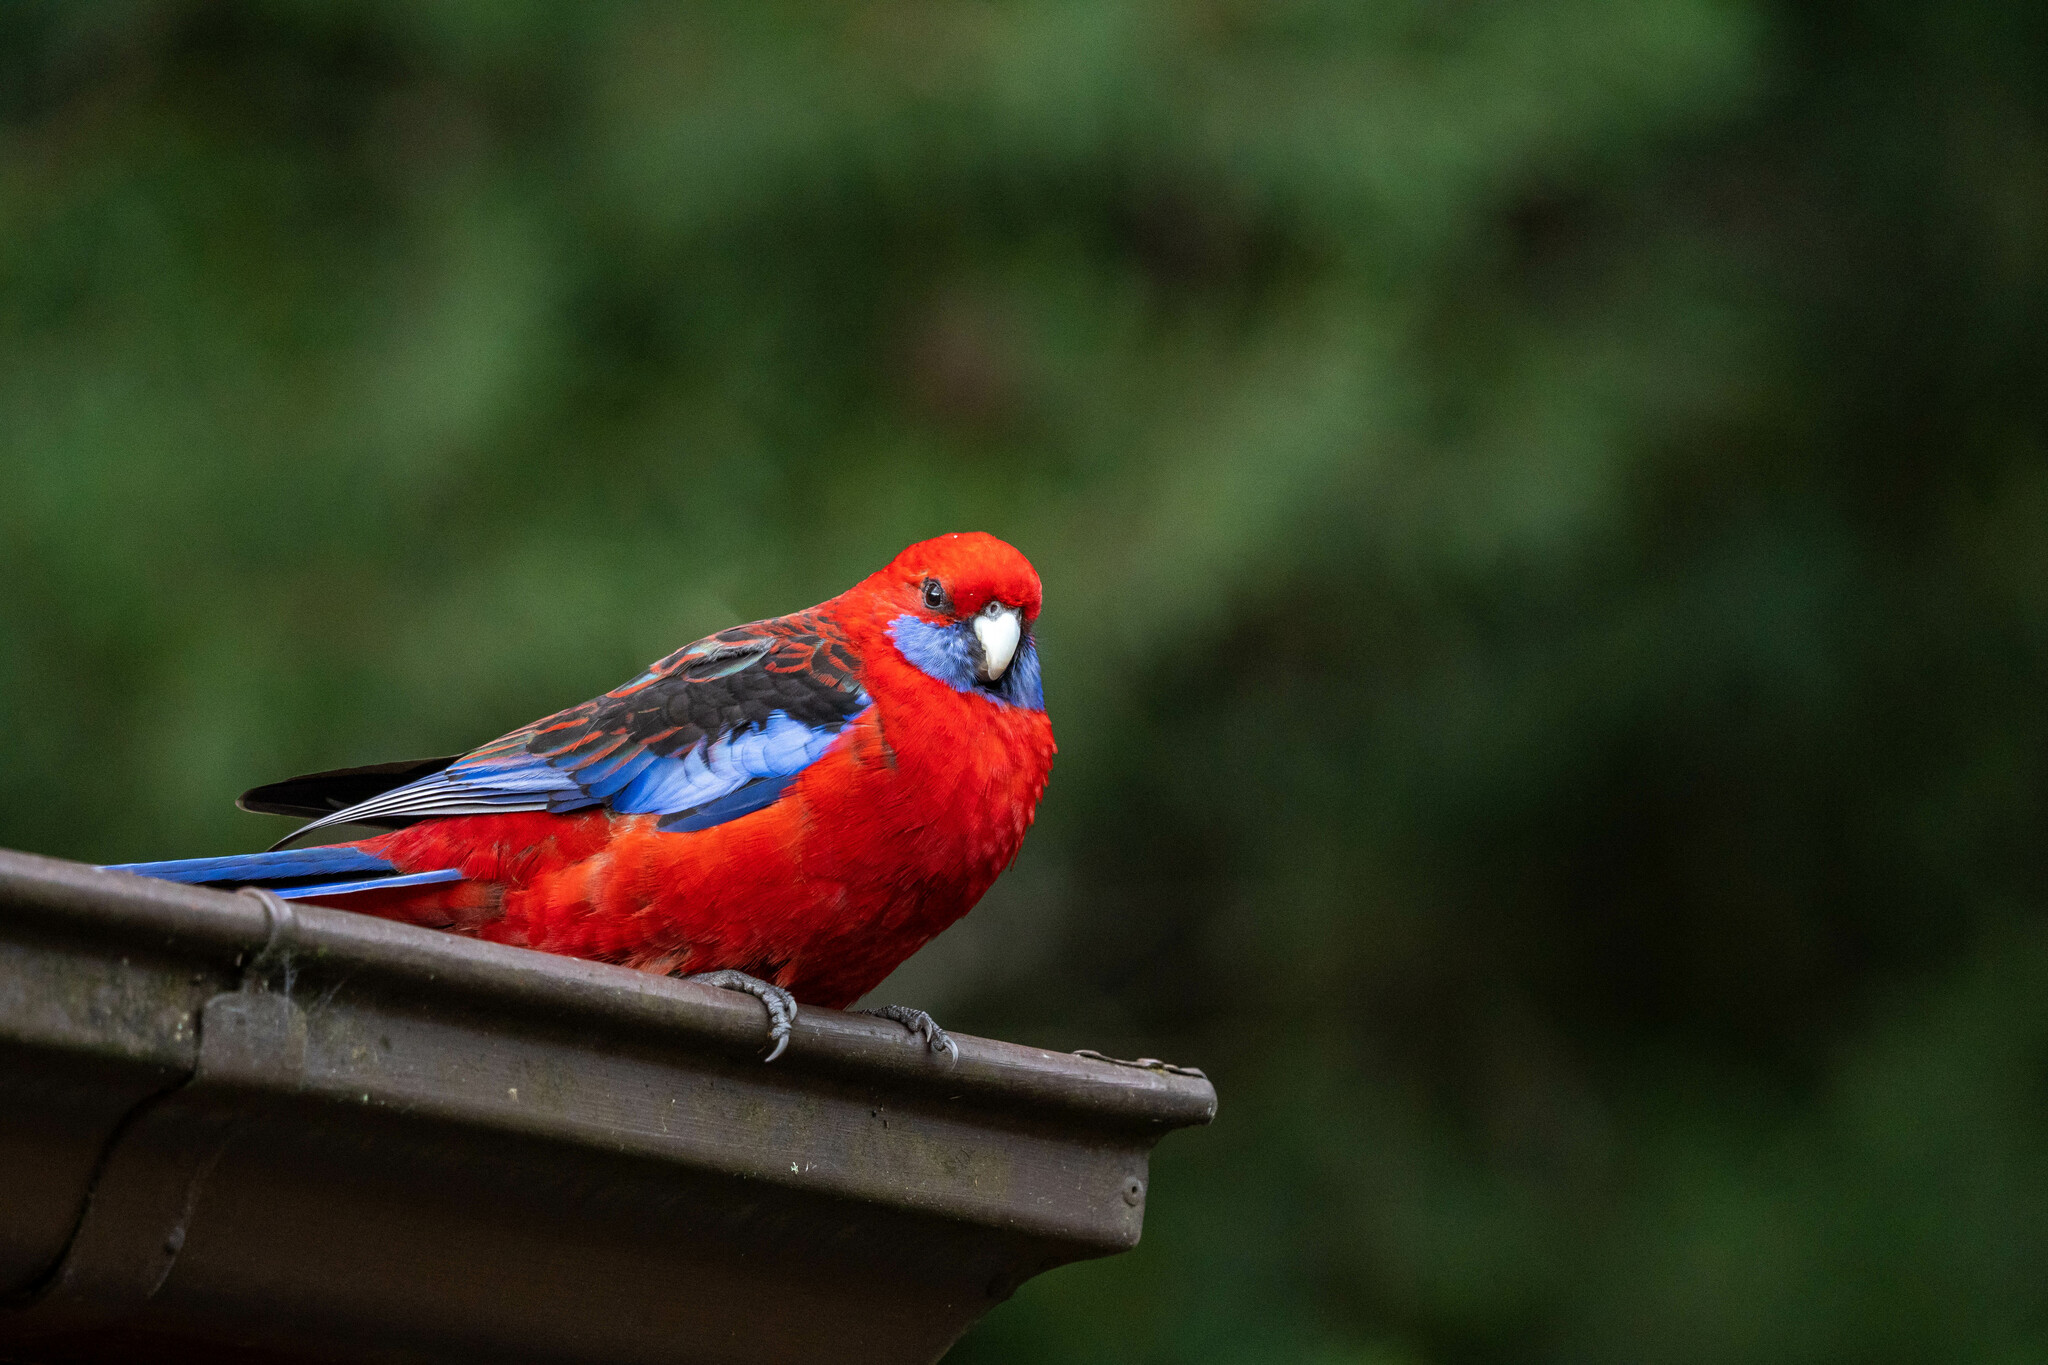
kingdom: Animalia
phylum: Chordata
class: Aves
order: Psittaciformes
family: Psittacidae
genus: Platycercus
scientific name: Platycercus elegans
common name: Crimson rosella
